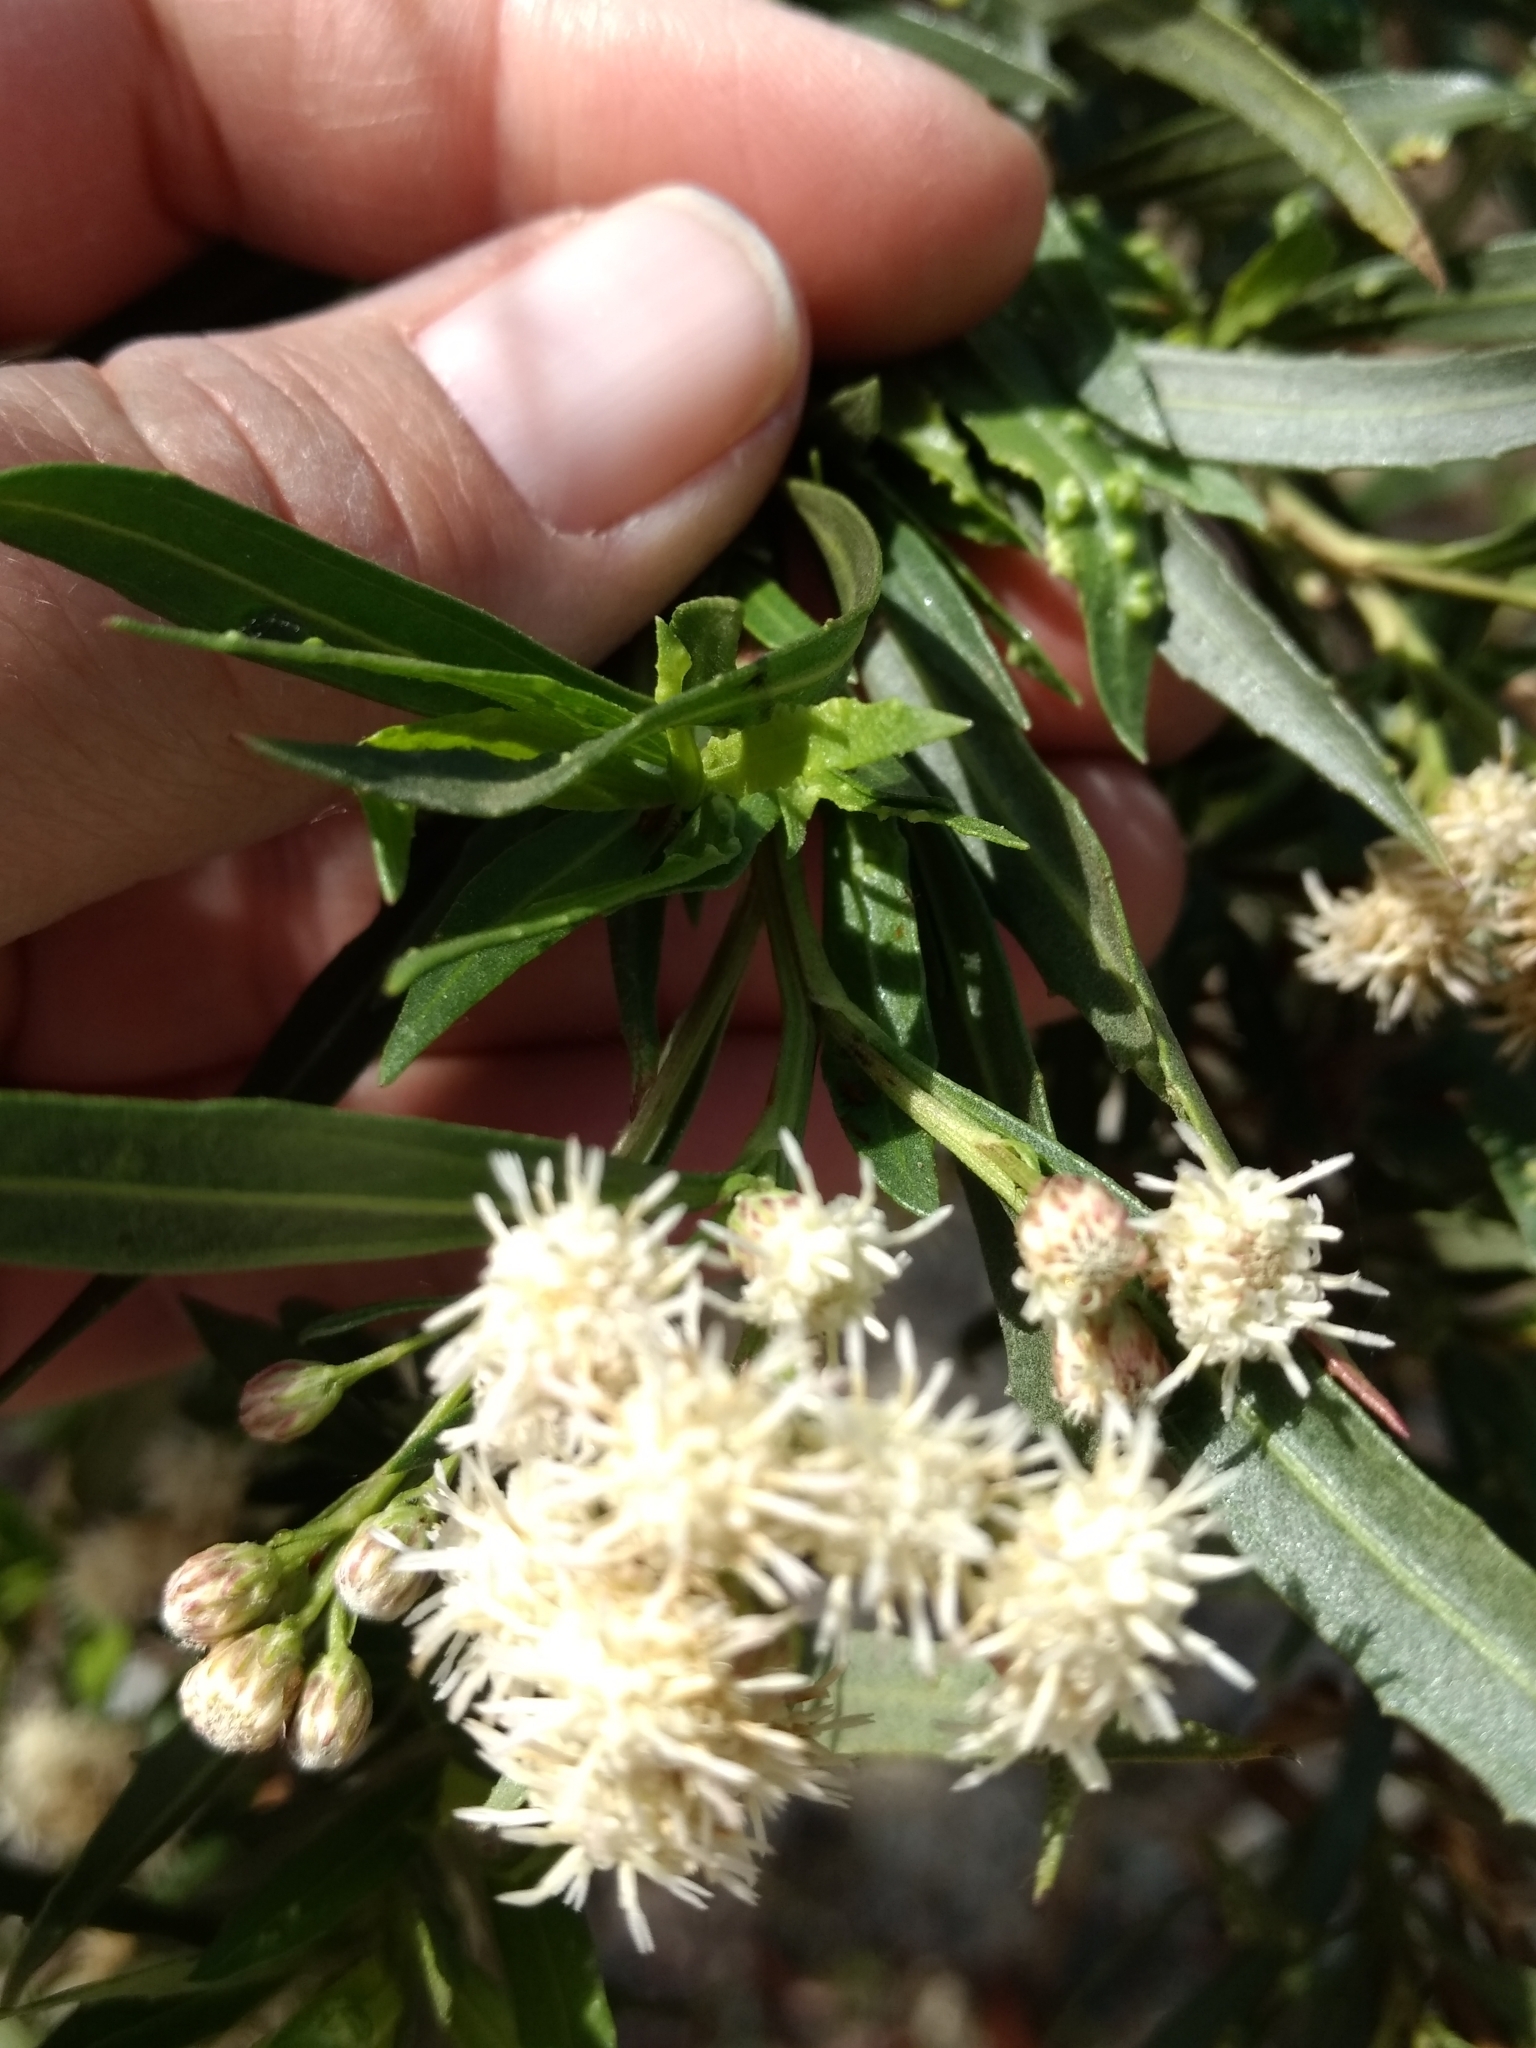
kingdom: Plantae
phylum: Tracheophyta
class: Magnoliopsida
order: Asterales
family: Asteraceae
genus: Baccharis
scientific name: Baccharis salicifolia
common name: Sticky baccharis
